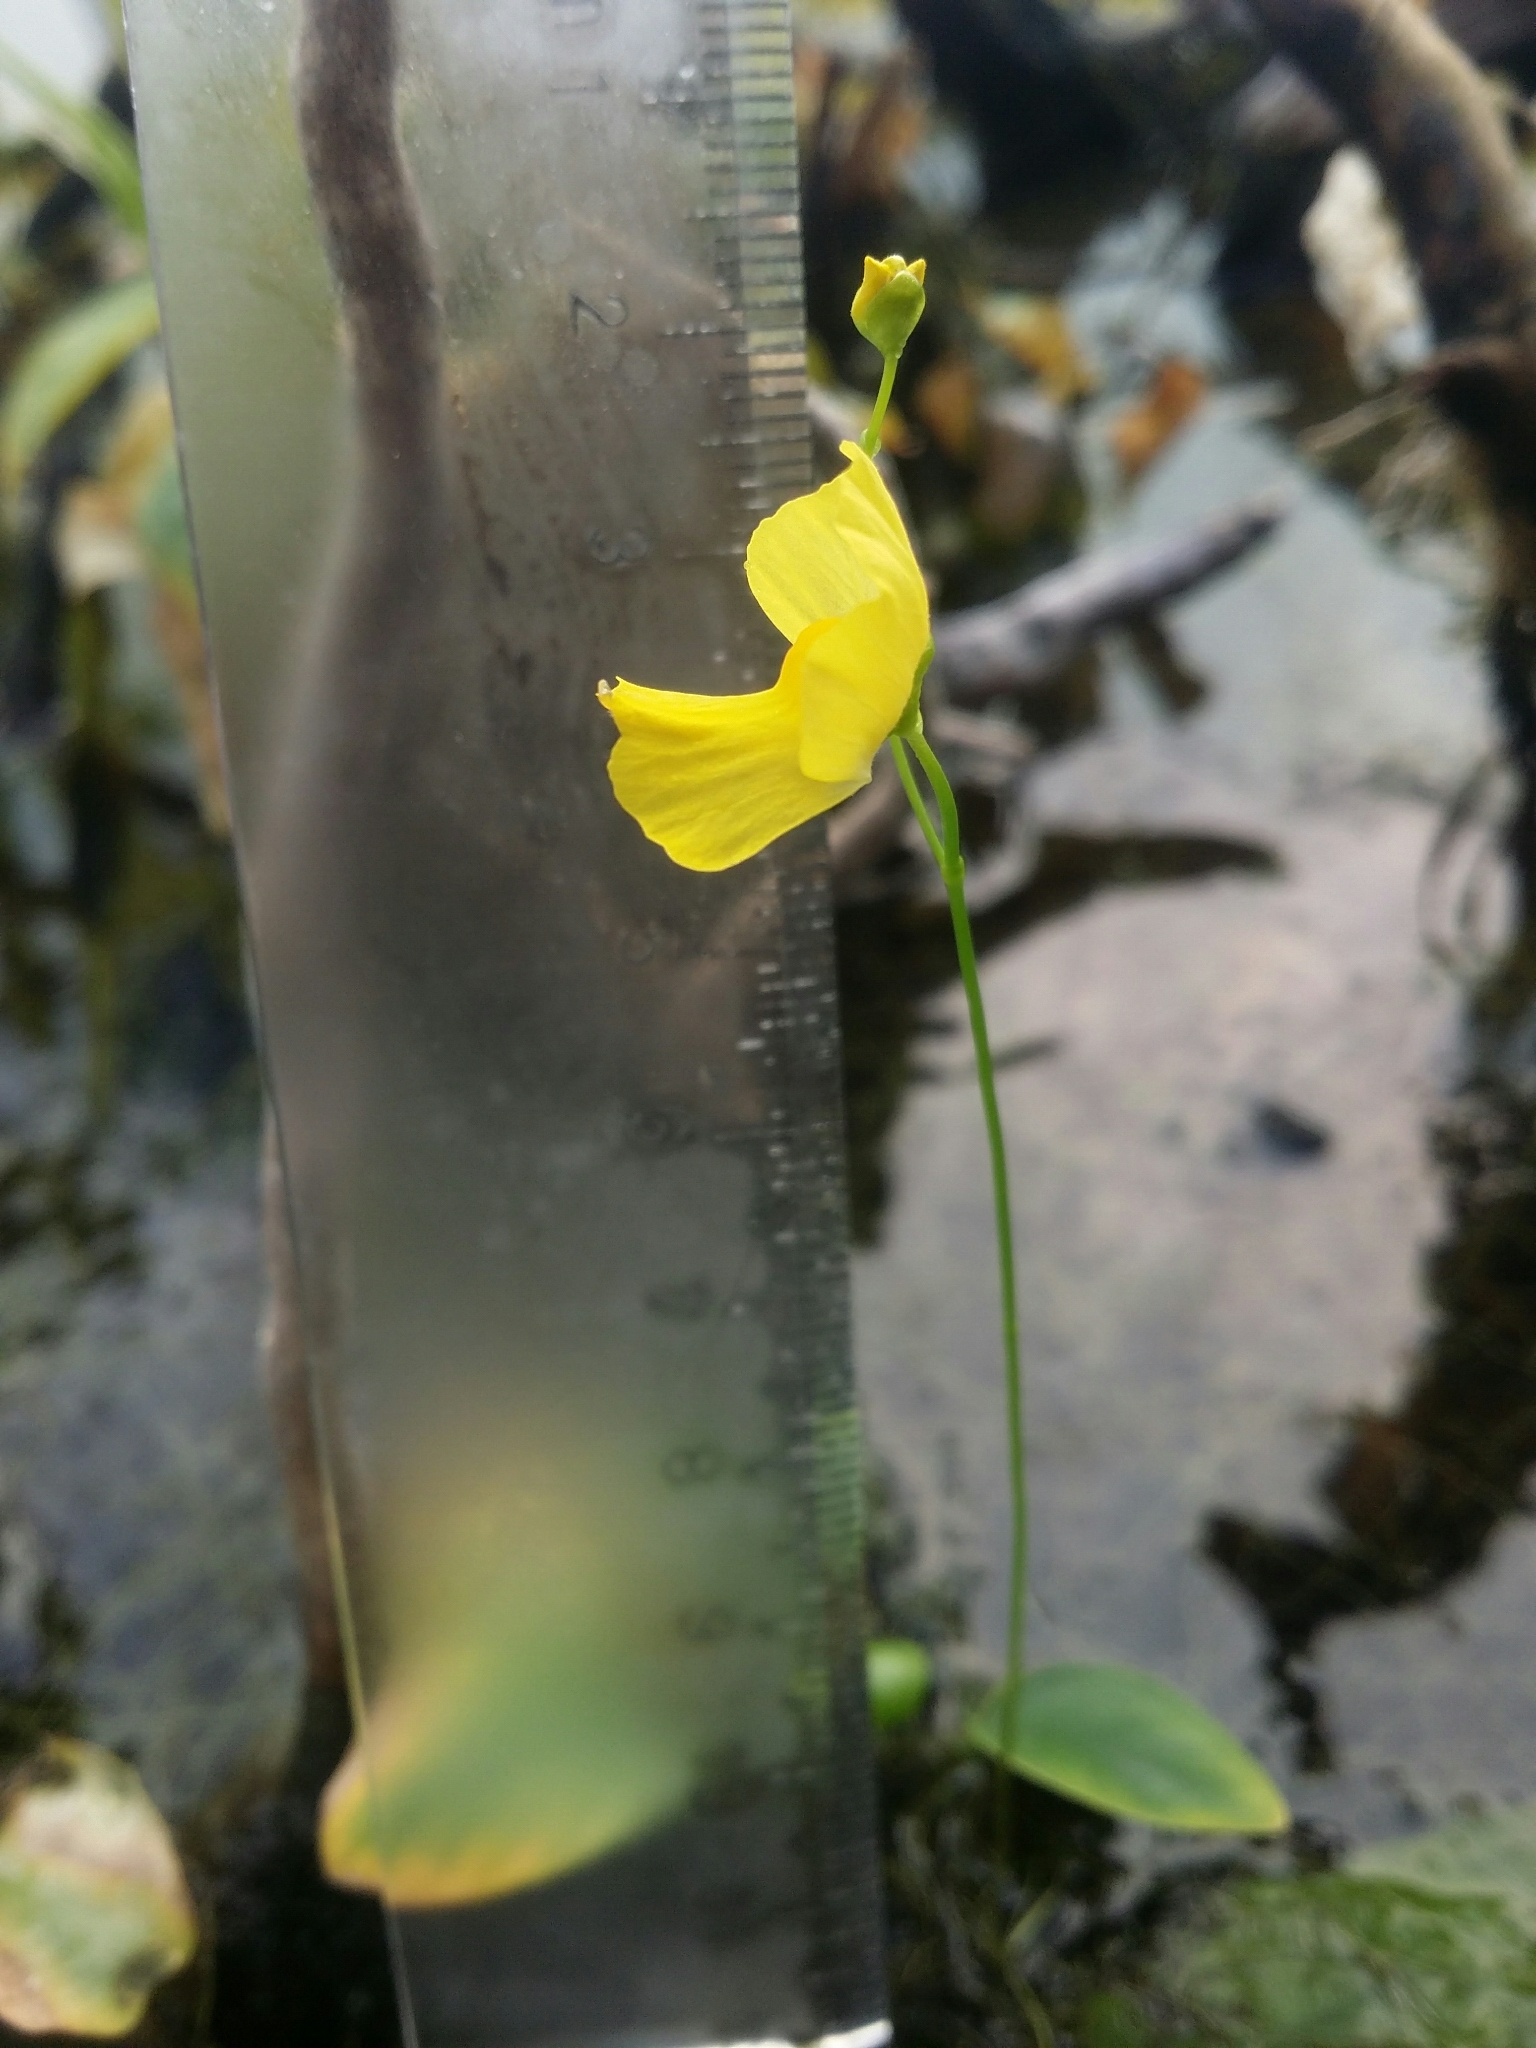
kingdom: Plantae
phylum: Tracheophyta
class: Magnoliopsida
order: Lamiales
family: Lentibulariaceae
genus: Utricularia
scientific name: Utricularia gibba
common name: Humped bladderwort
